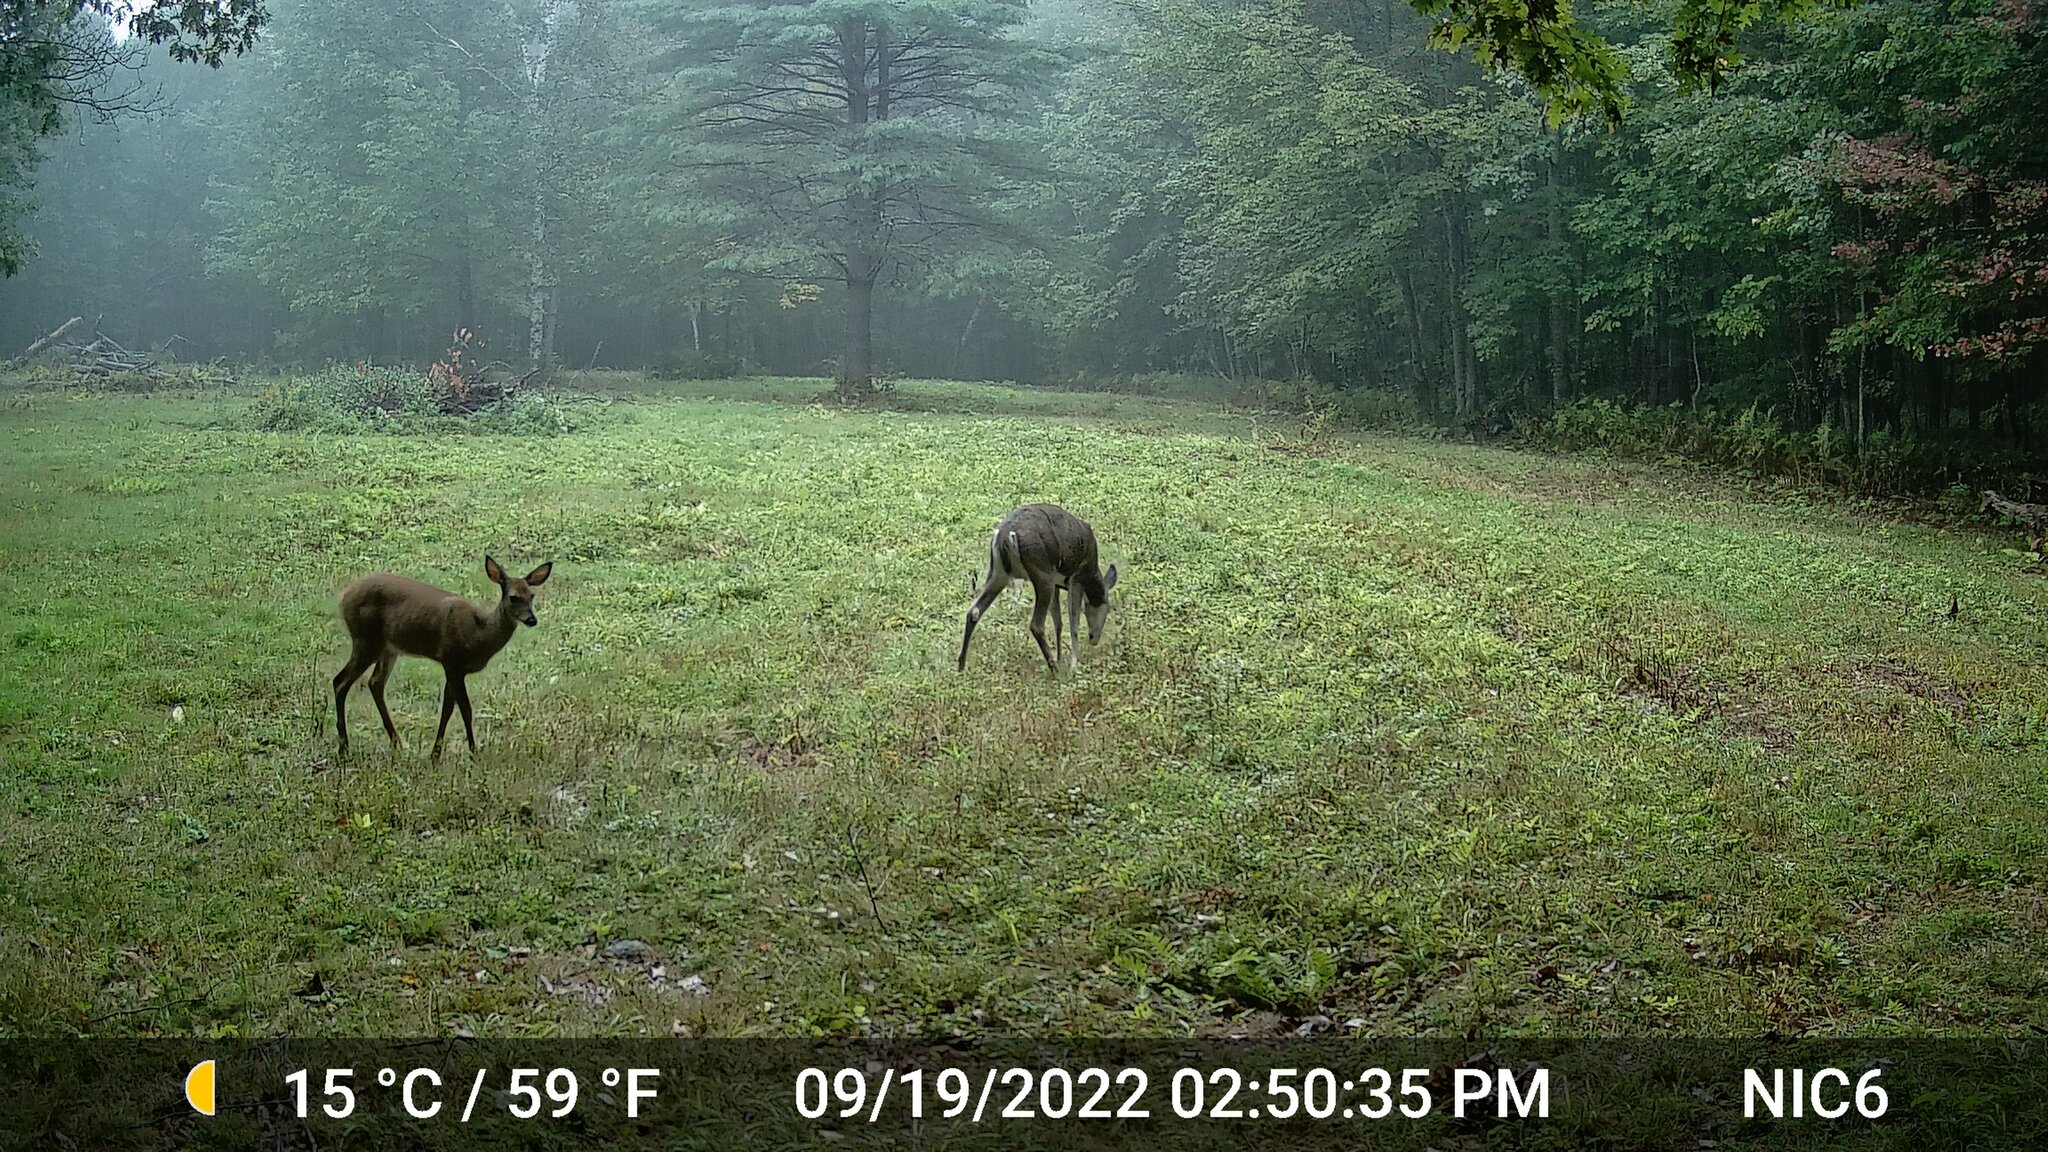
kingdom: Animalia
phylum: Chordata
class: Mammalia
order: Artiodactyla
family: Cervidae
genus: Odocoileus
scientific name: Odocoileus virginianus
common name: White-tailed deer
